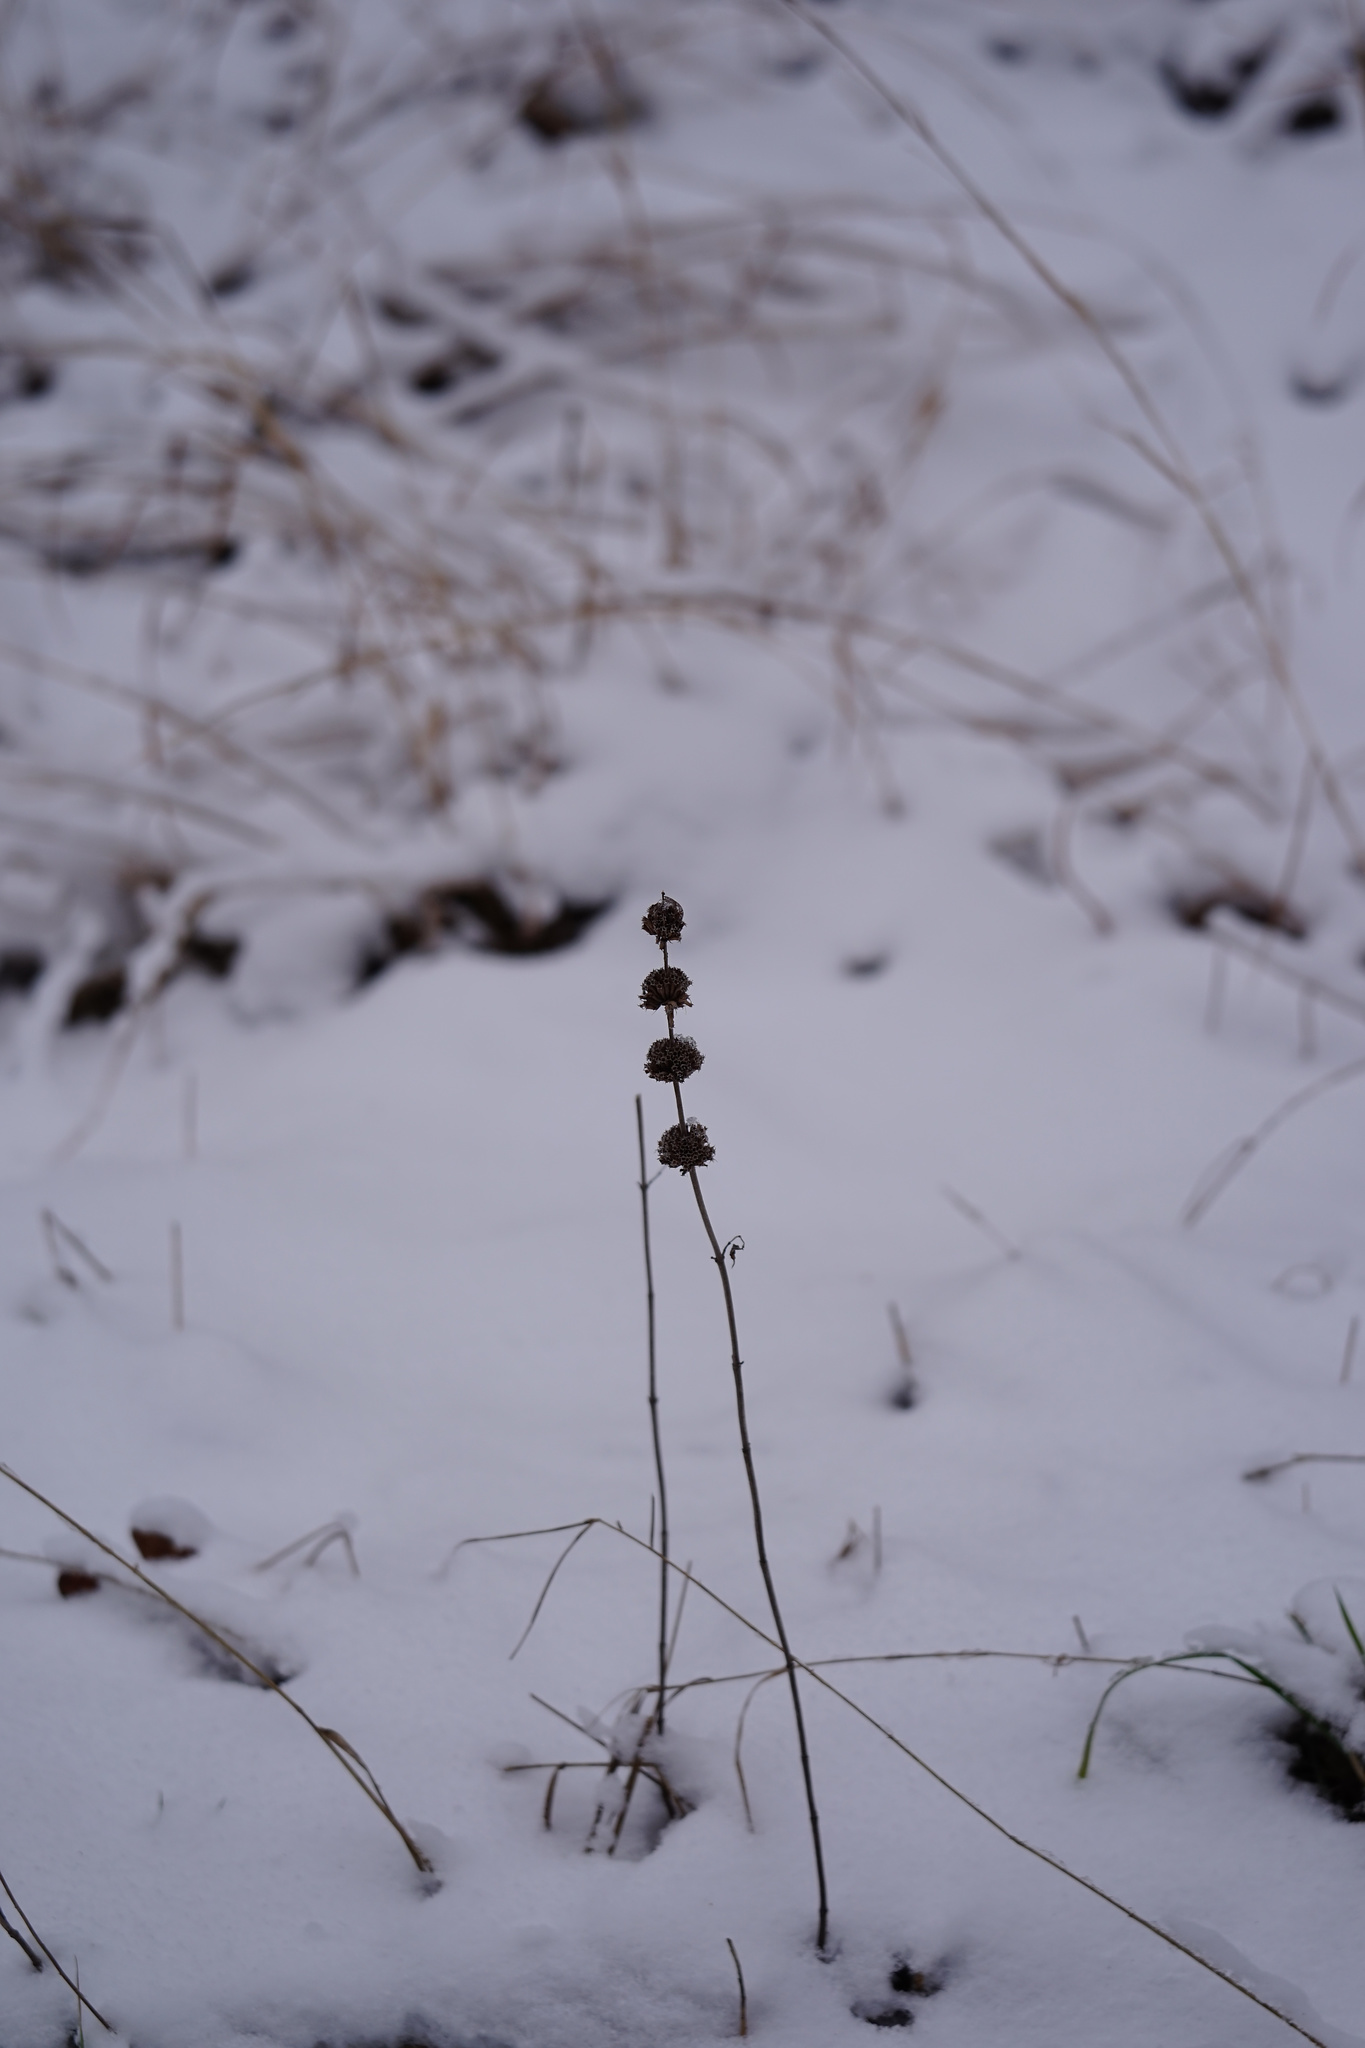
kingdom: Plantae
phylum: Tracheophyta
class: Magnoliopsida
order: Lamiales
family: Lamiaceae
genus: Monarda
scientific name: Monarda punctata
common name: Dotted monarda
